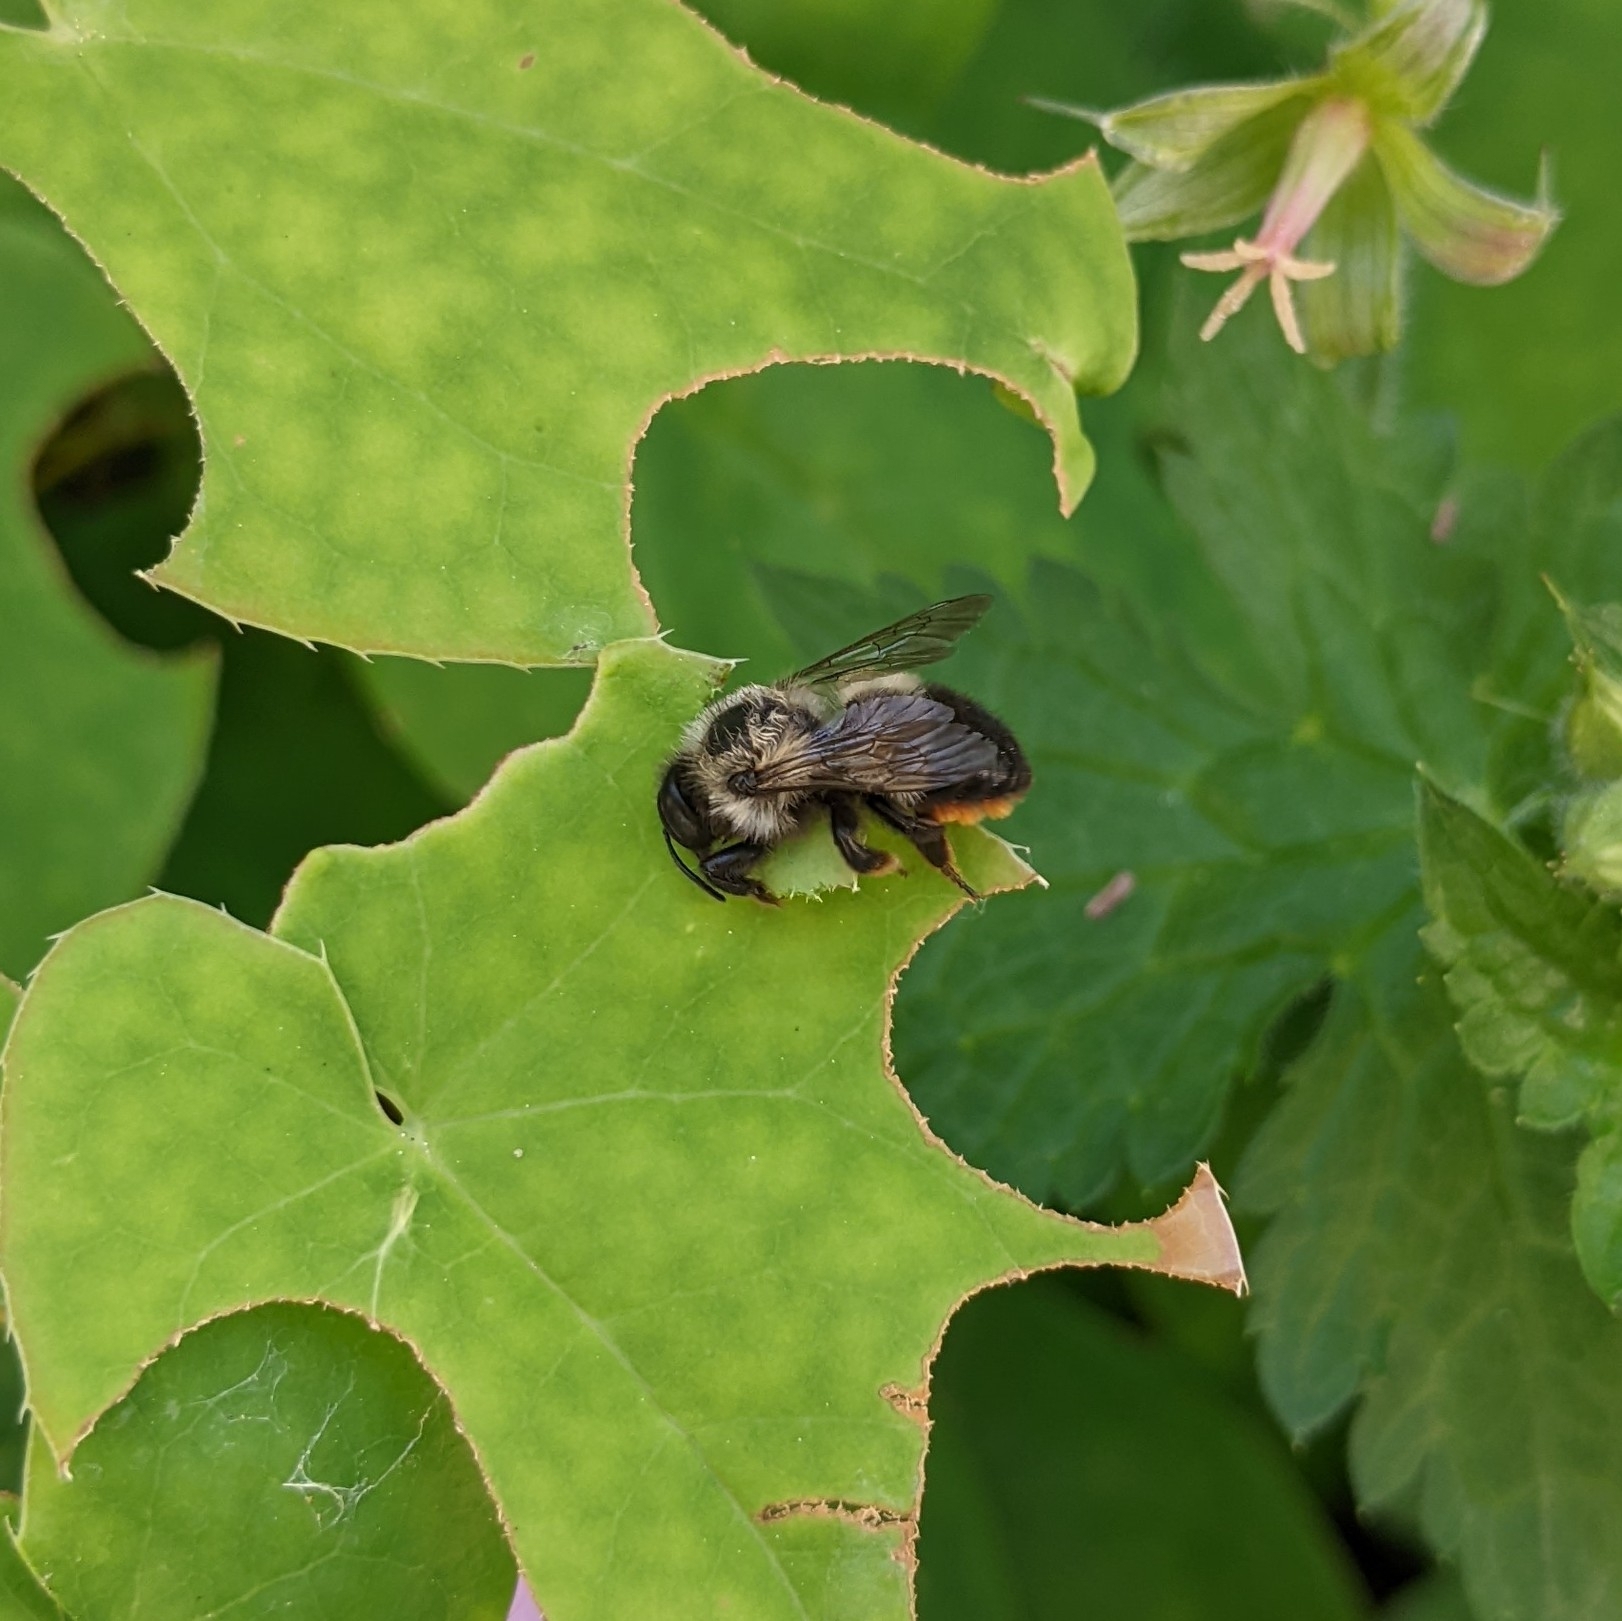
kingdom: Animalia
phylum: Arthropoda
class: Insecta
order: Hymenoptera
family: Megachilidae
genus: Megachile
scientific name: Megachile melanophaea
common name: Black-and-gray leafcutter bee
